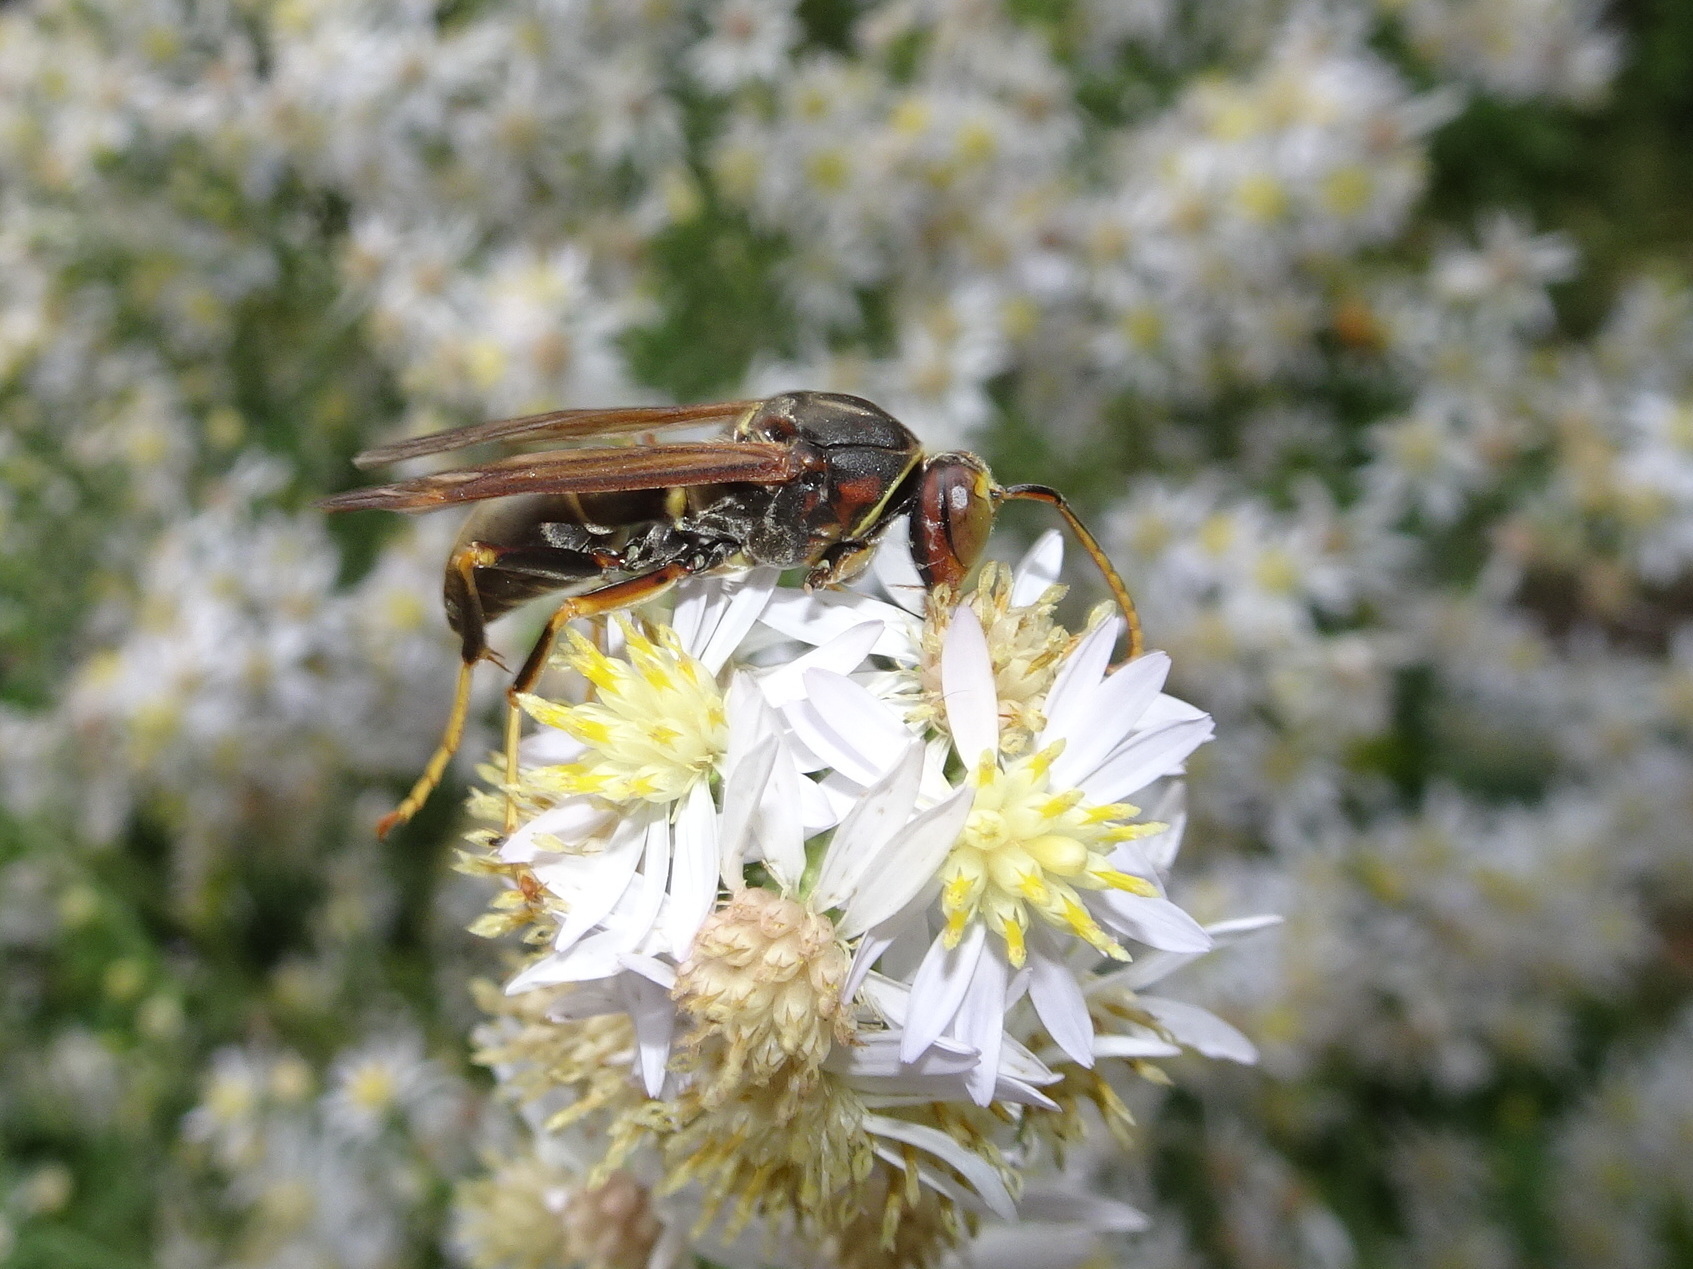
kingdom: Animalia
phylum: Arthropoda
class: Insecta
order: Hymenoptera
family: Eumenidae
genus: Polistes
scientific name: Polistes fuscatus
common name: Dark paper wasp
